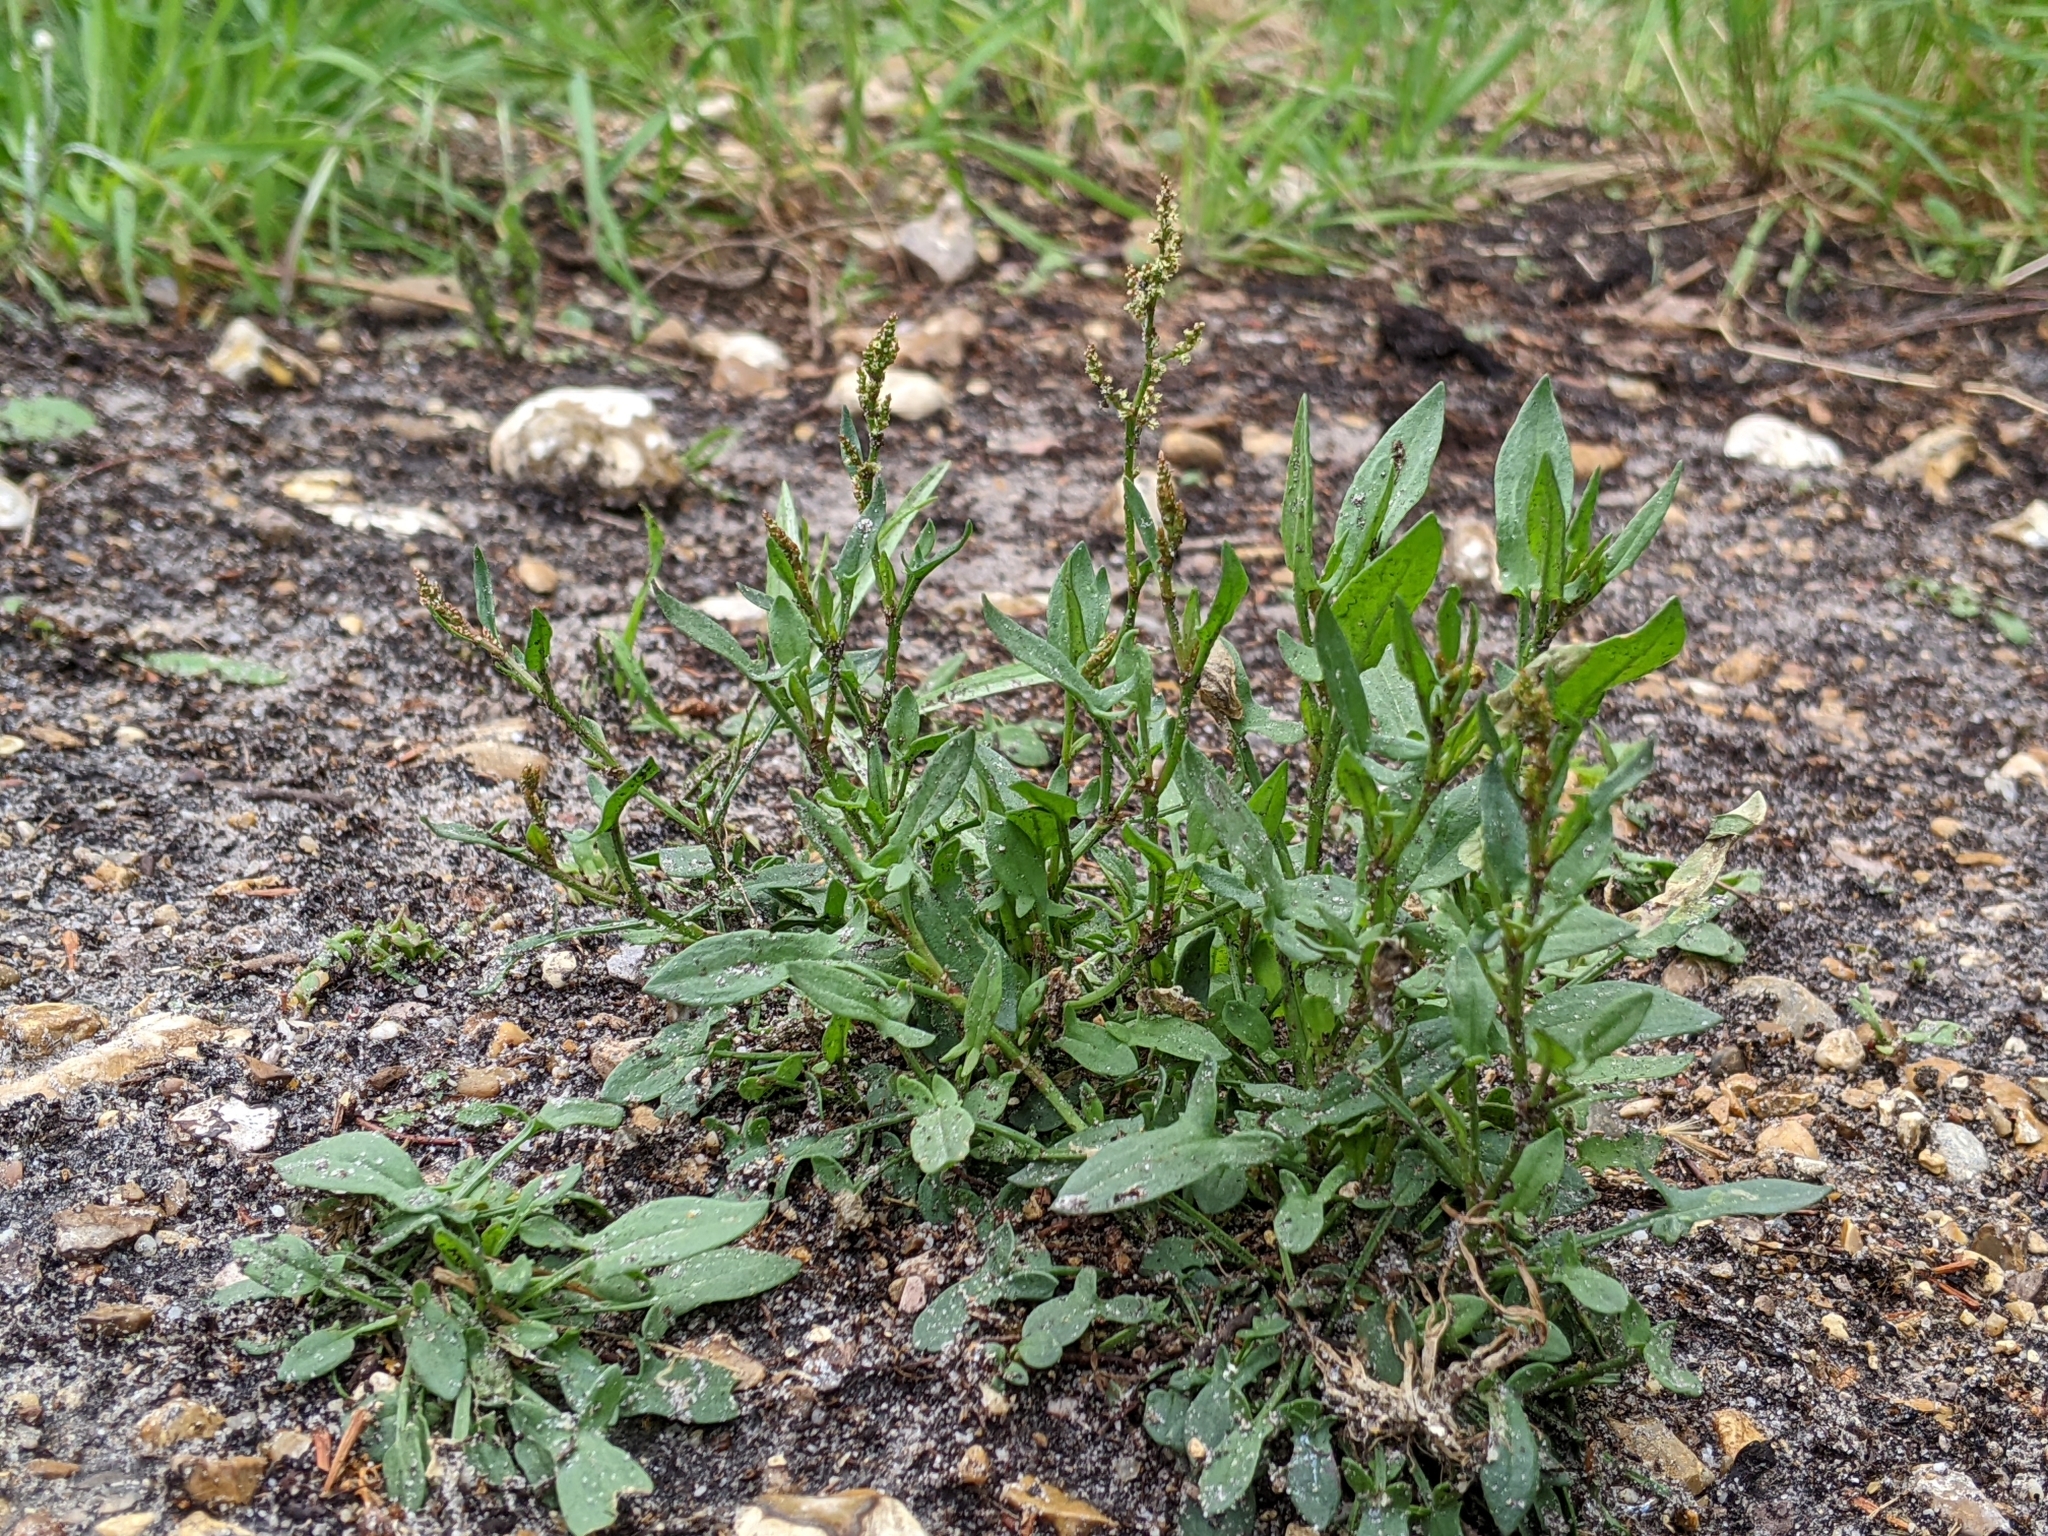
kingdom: Plantae
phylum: Tracheophyta
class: Magnoliopsida
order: Caryophyllales
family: Polygonaceae
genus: Rumex
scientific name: Rumex acetosella
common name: Common sheep sorrel
